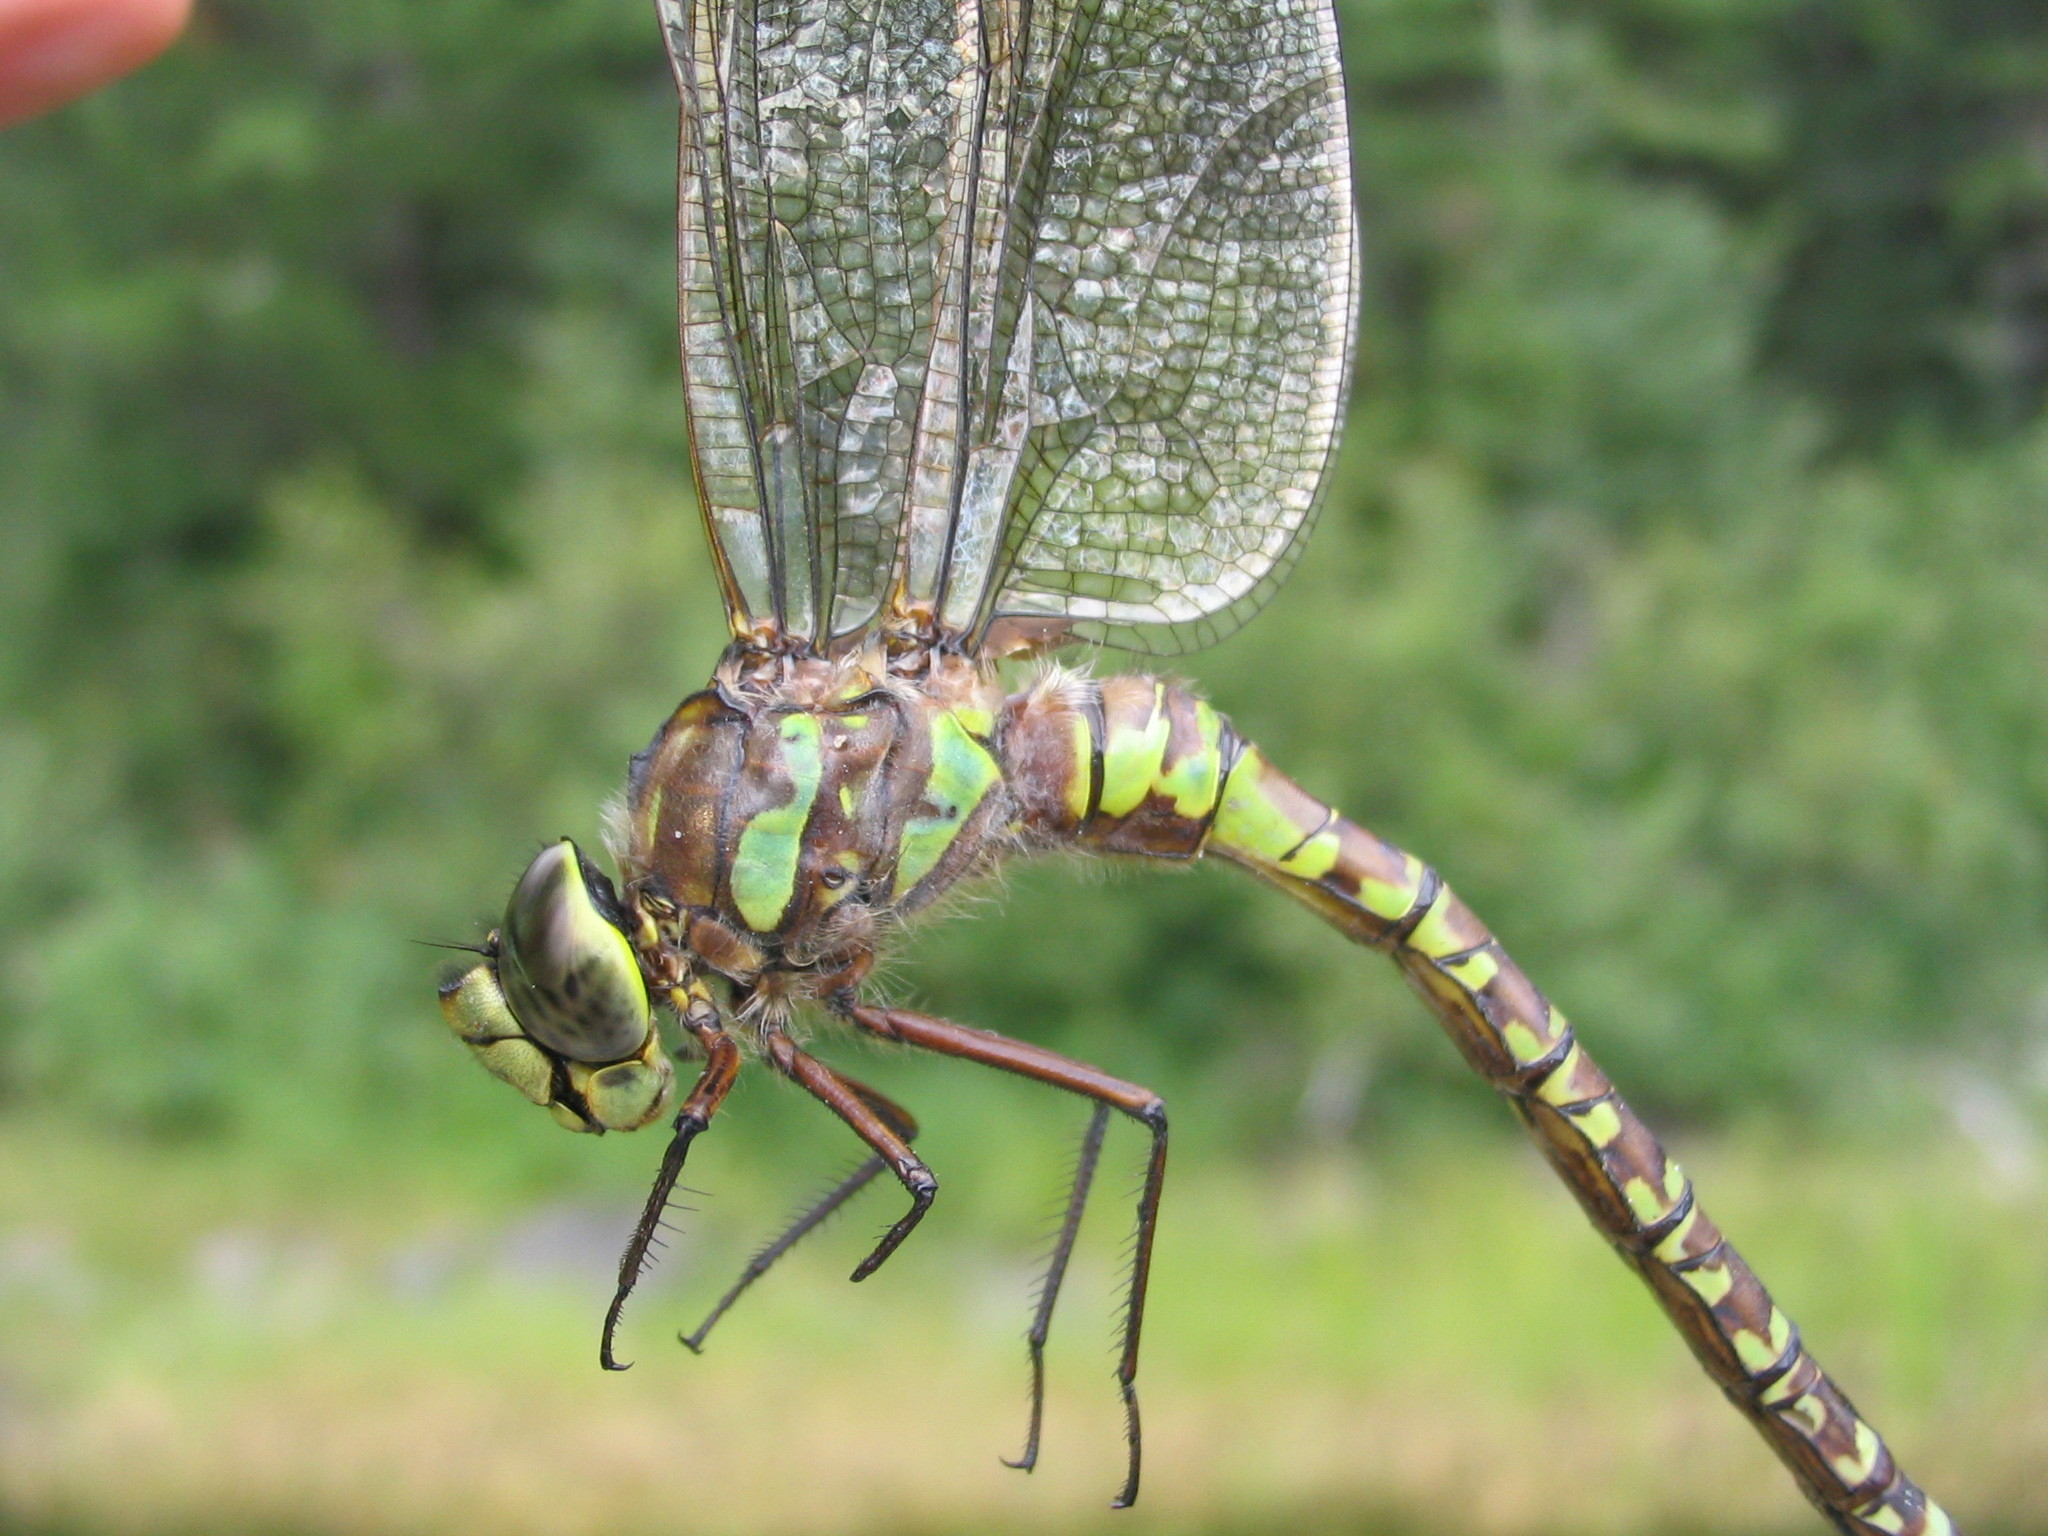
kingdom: Animalia
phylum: Arthropoda
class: Insecta
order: Odonata
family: Aeshnidae
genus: Aeshna
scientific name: Aeshna eremita
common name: Lake darner
